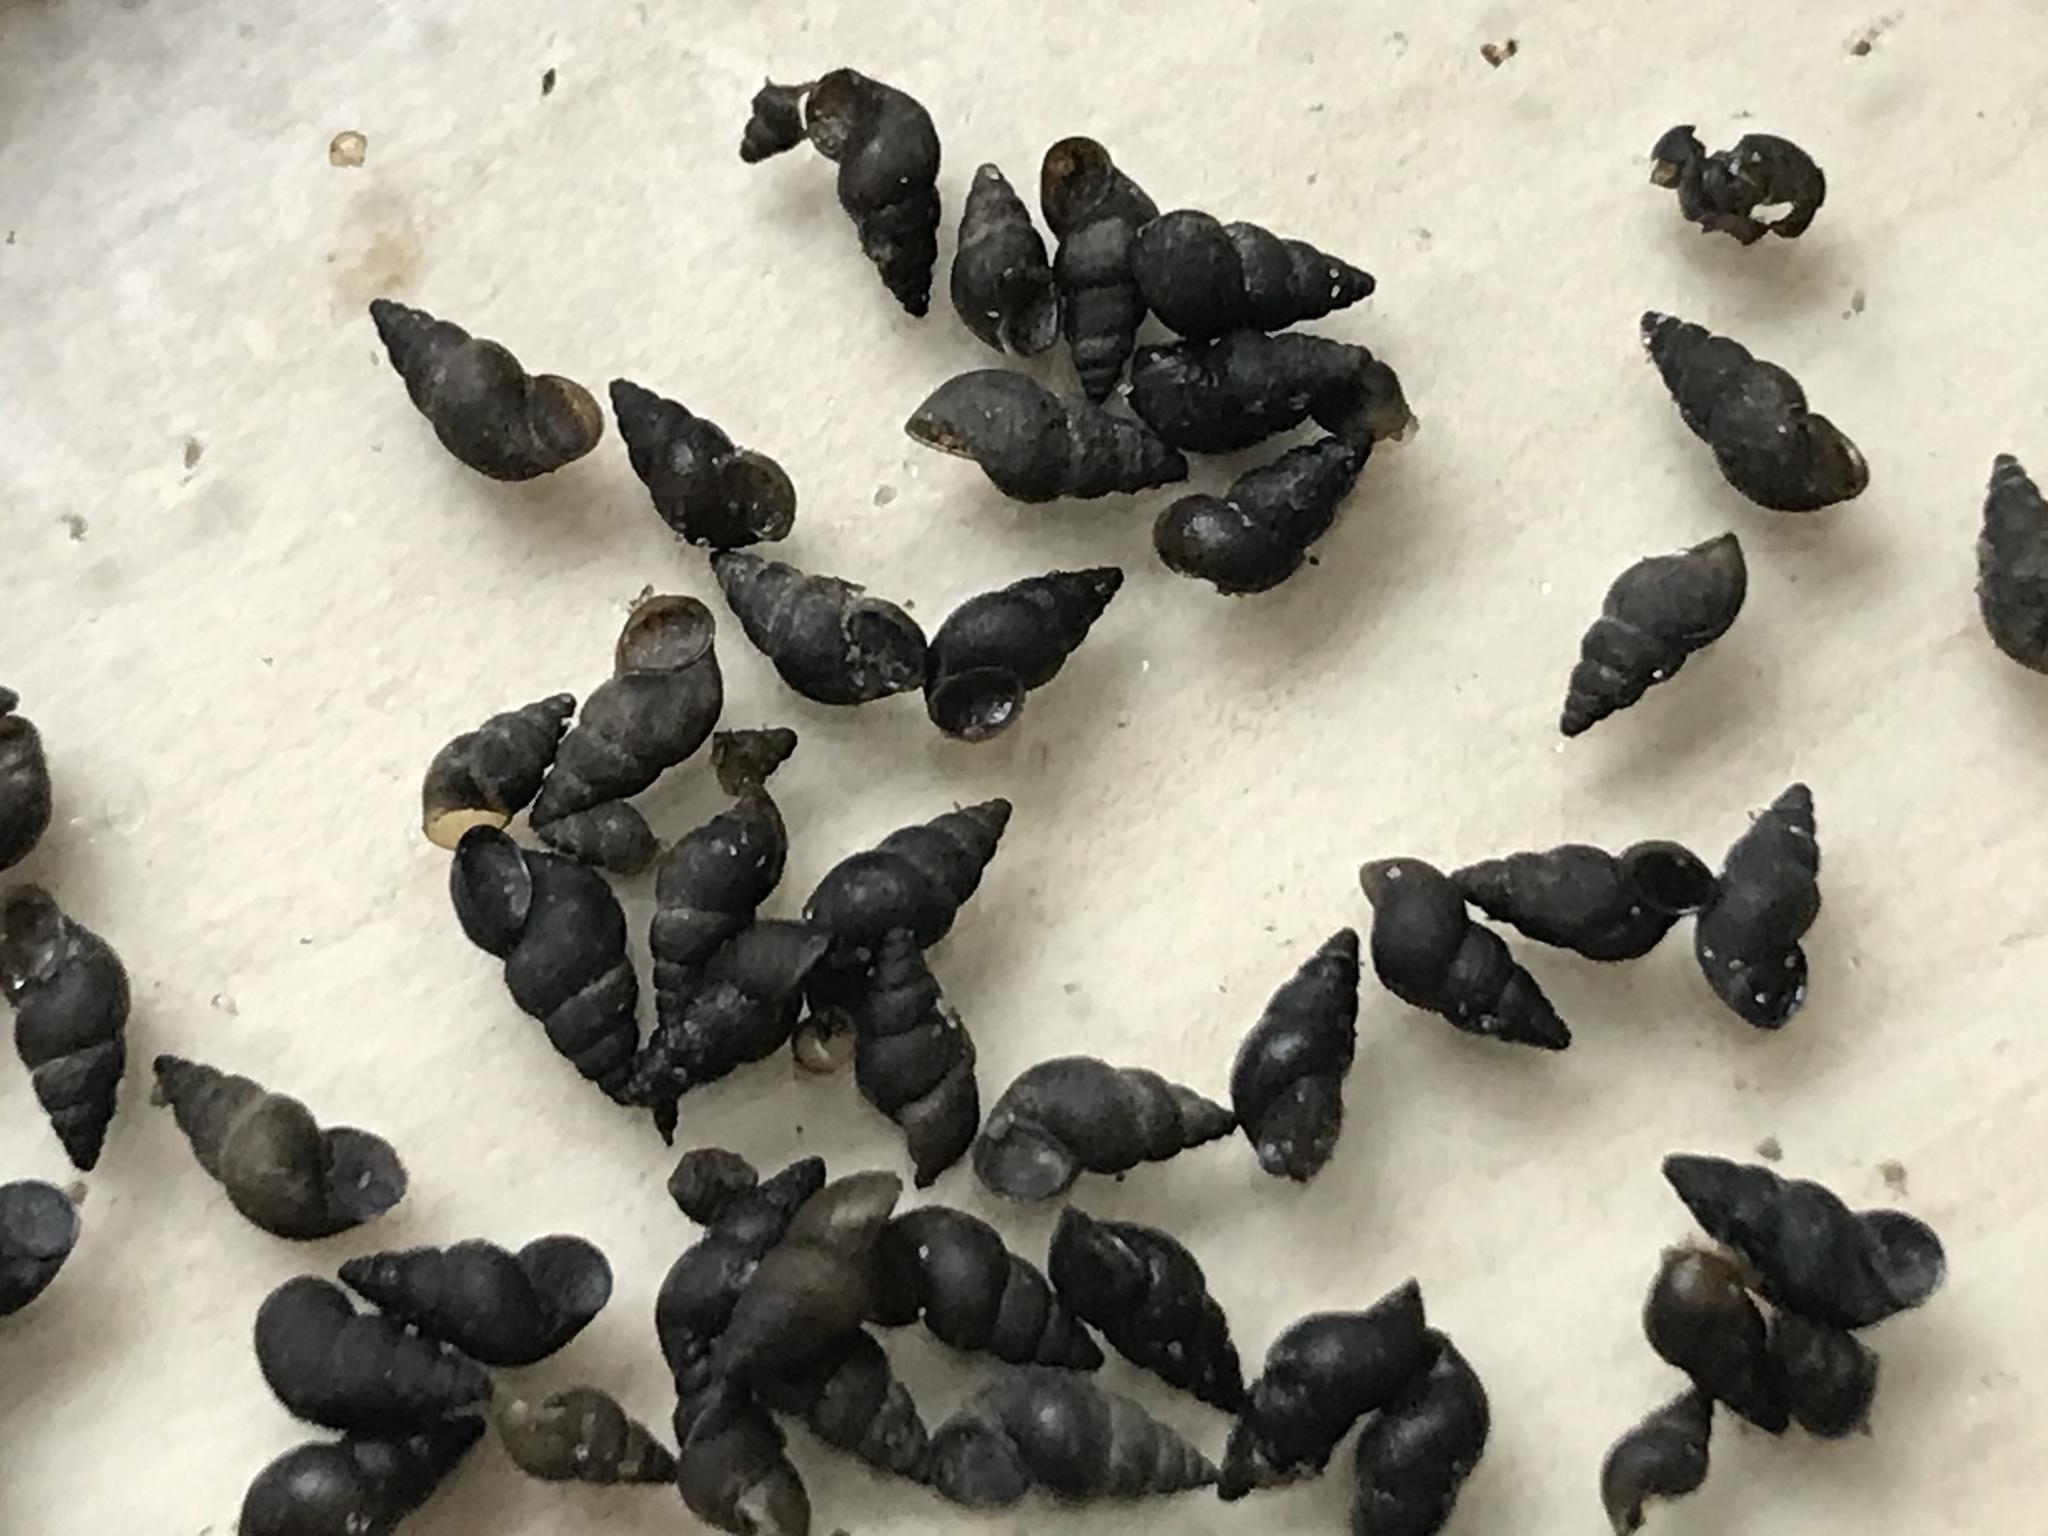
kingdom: Animalia
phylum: Mollusca
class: Gastropoda
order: Littorinimorpha
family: Tateidae
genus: Potamopyrgus
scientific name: Potamopyrgus antipodarum
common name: Jenkins' spire snail
